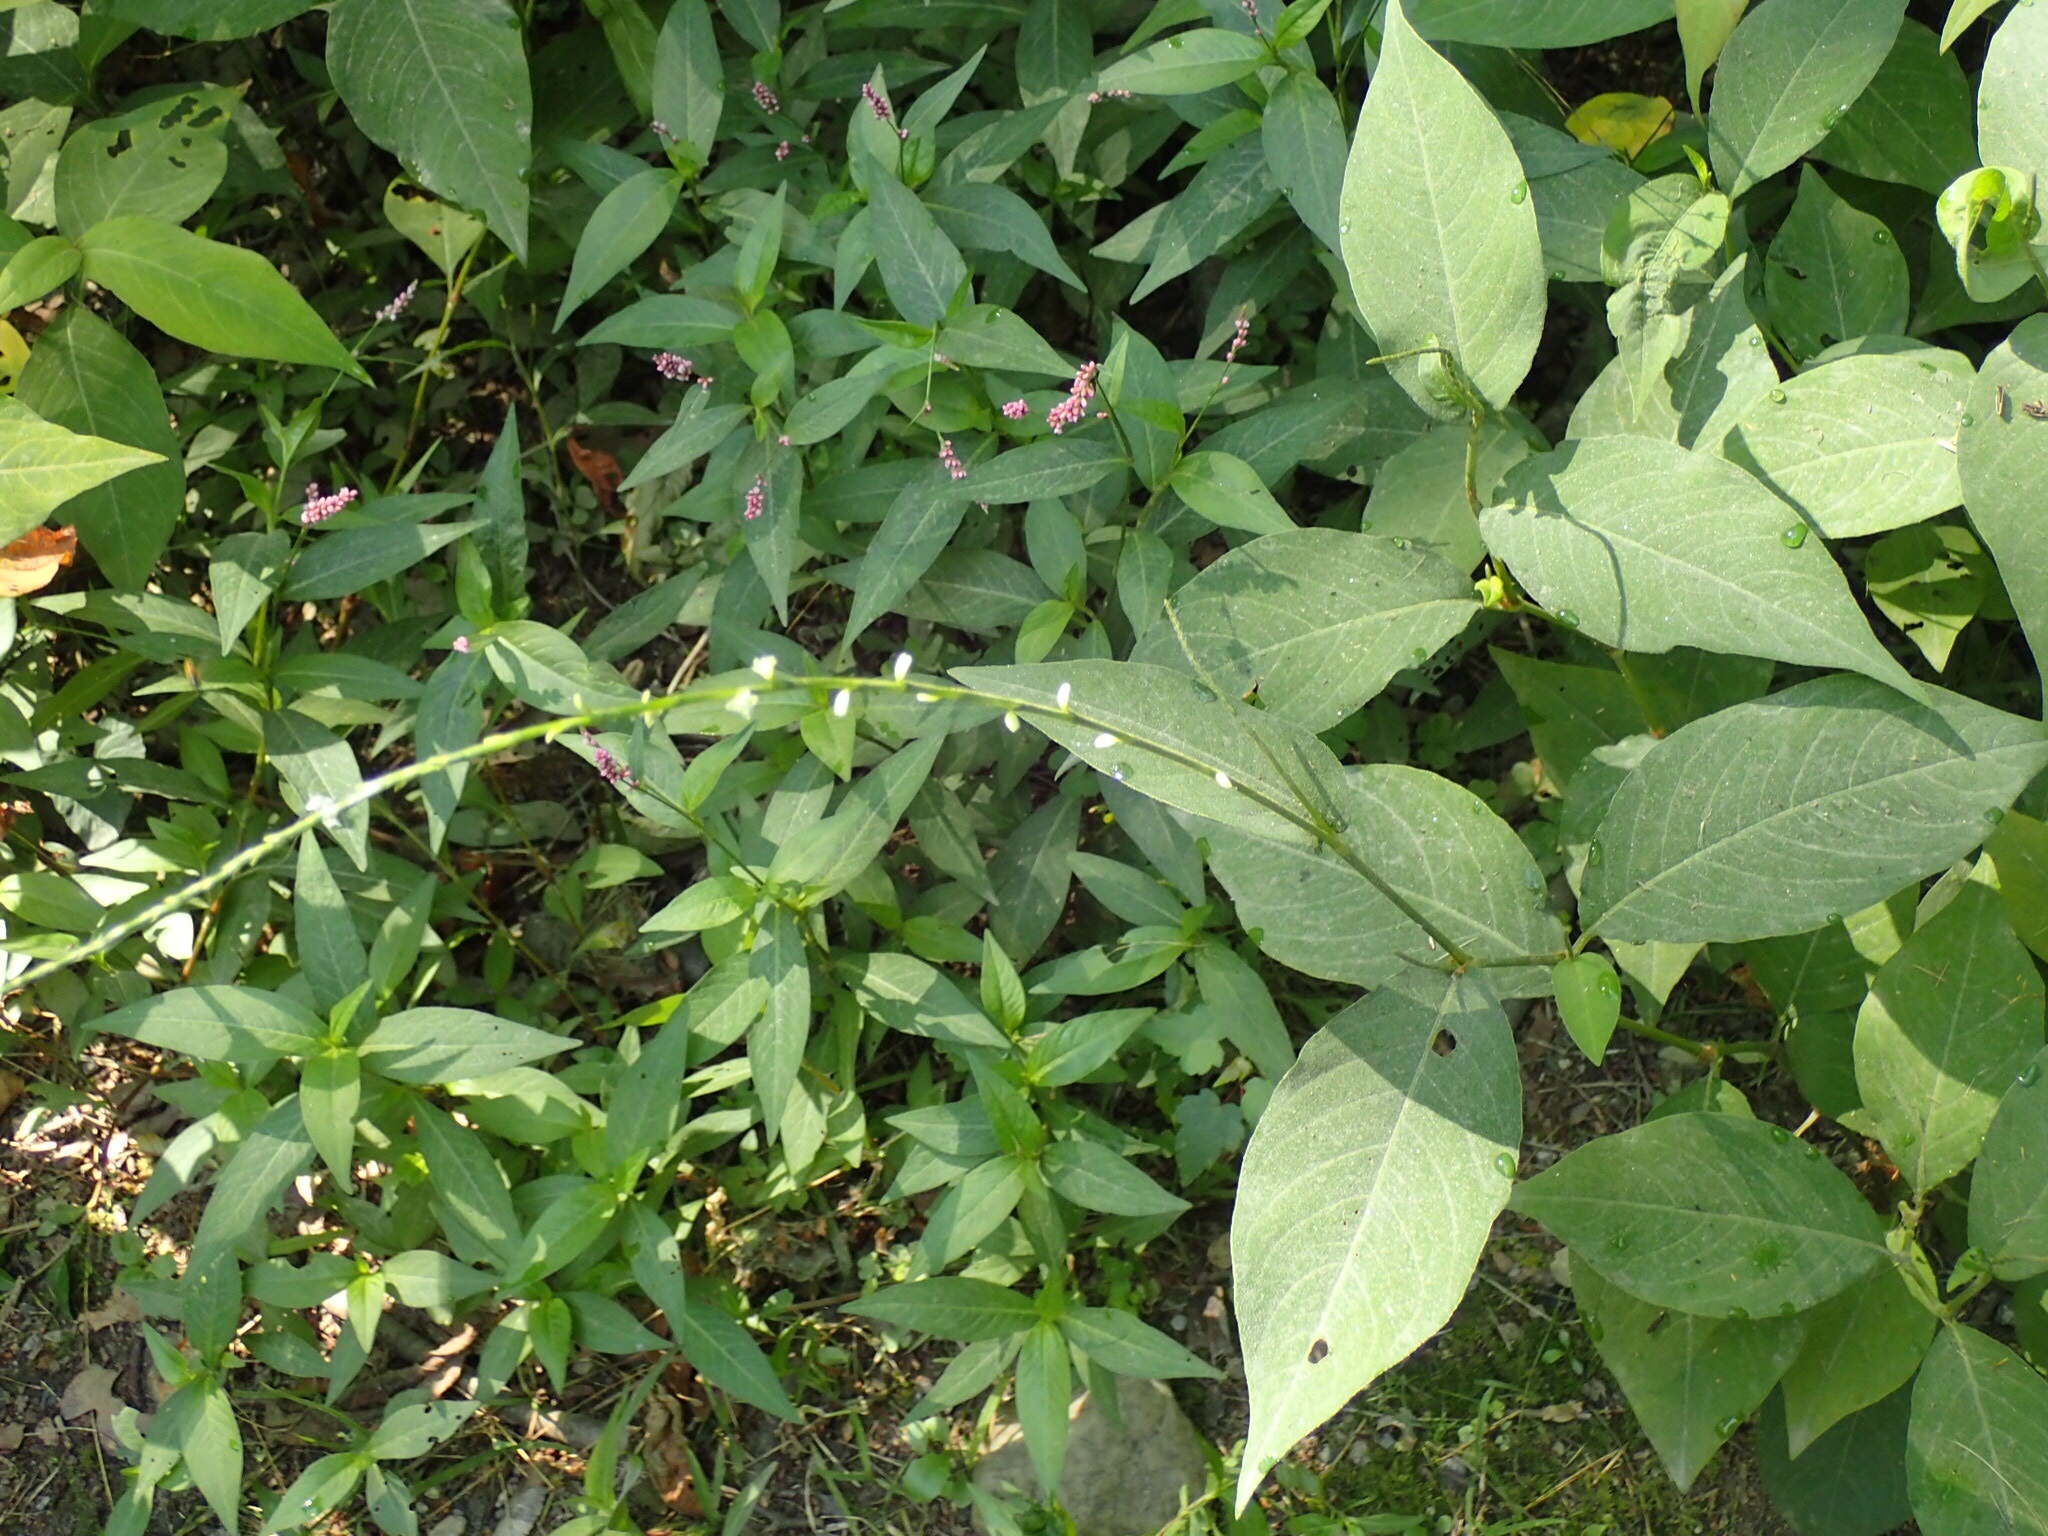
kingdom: Plantae
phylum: Tracheophyta
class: Magnoliopsida
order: Caryophyllales
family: Polygonaceae
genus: Persicaria
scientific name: Persicaria virginiana
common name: Jumpseed
